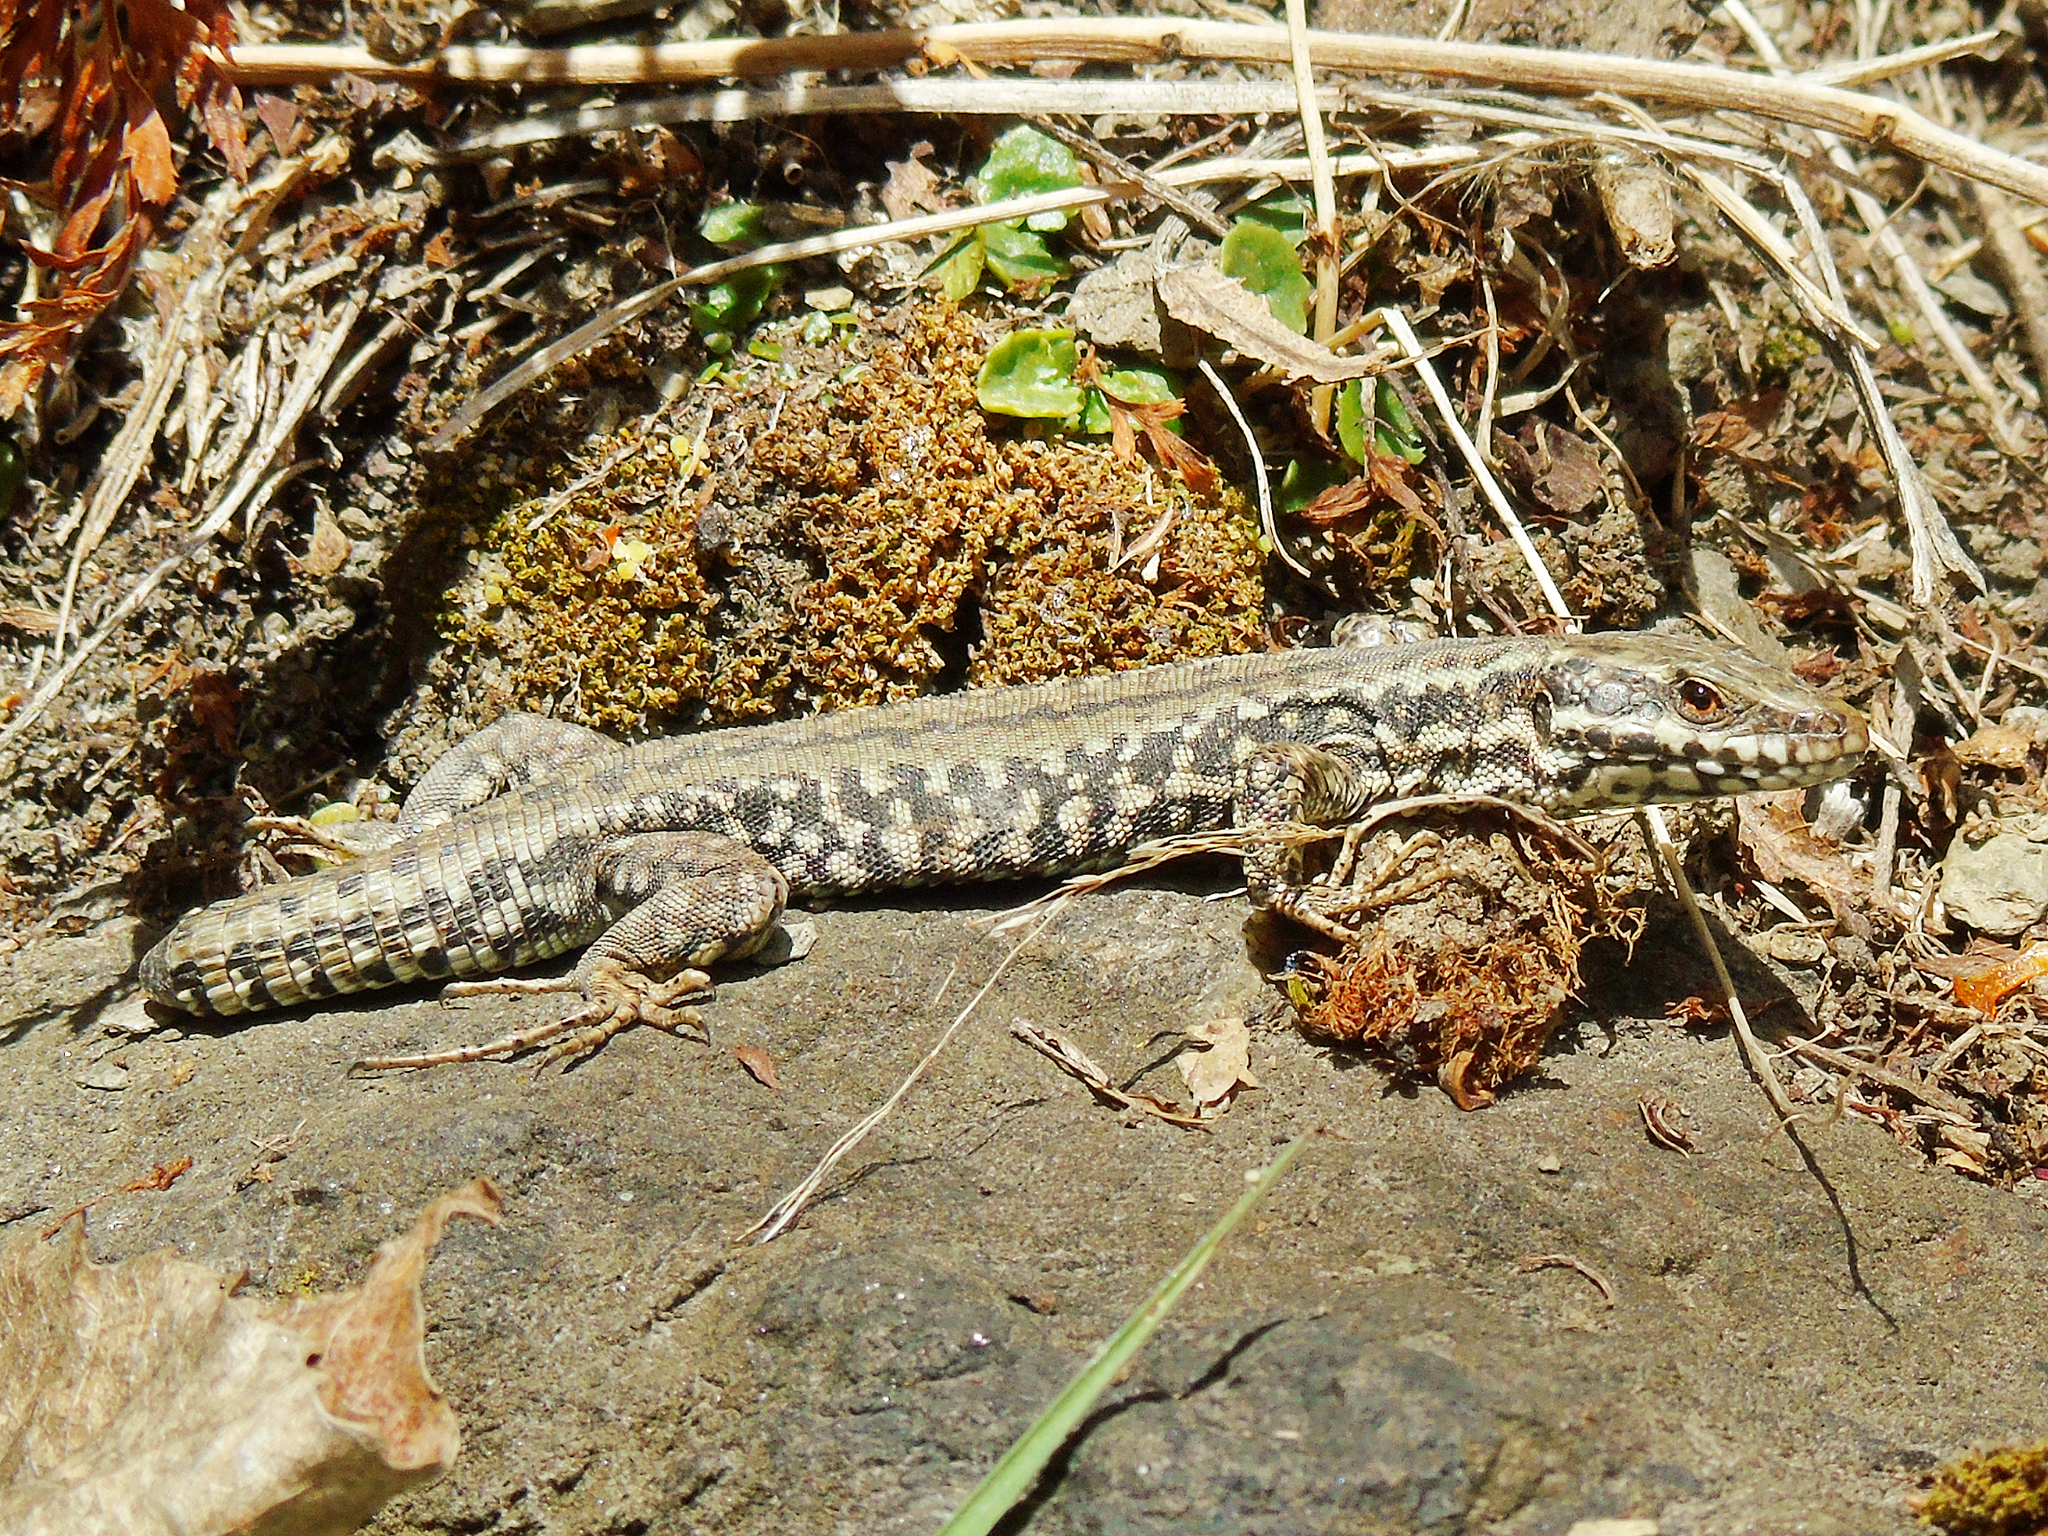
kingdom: Animalia
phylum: Chordata
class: Squamata
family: Lacertidae
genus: Podarcis
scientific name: Podarcis muralis
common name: Common wall lizard
